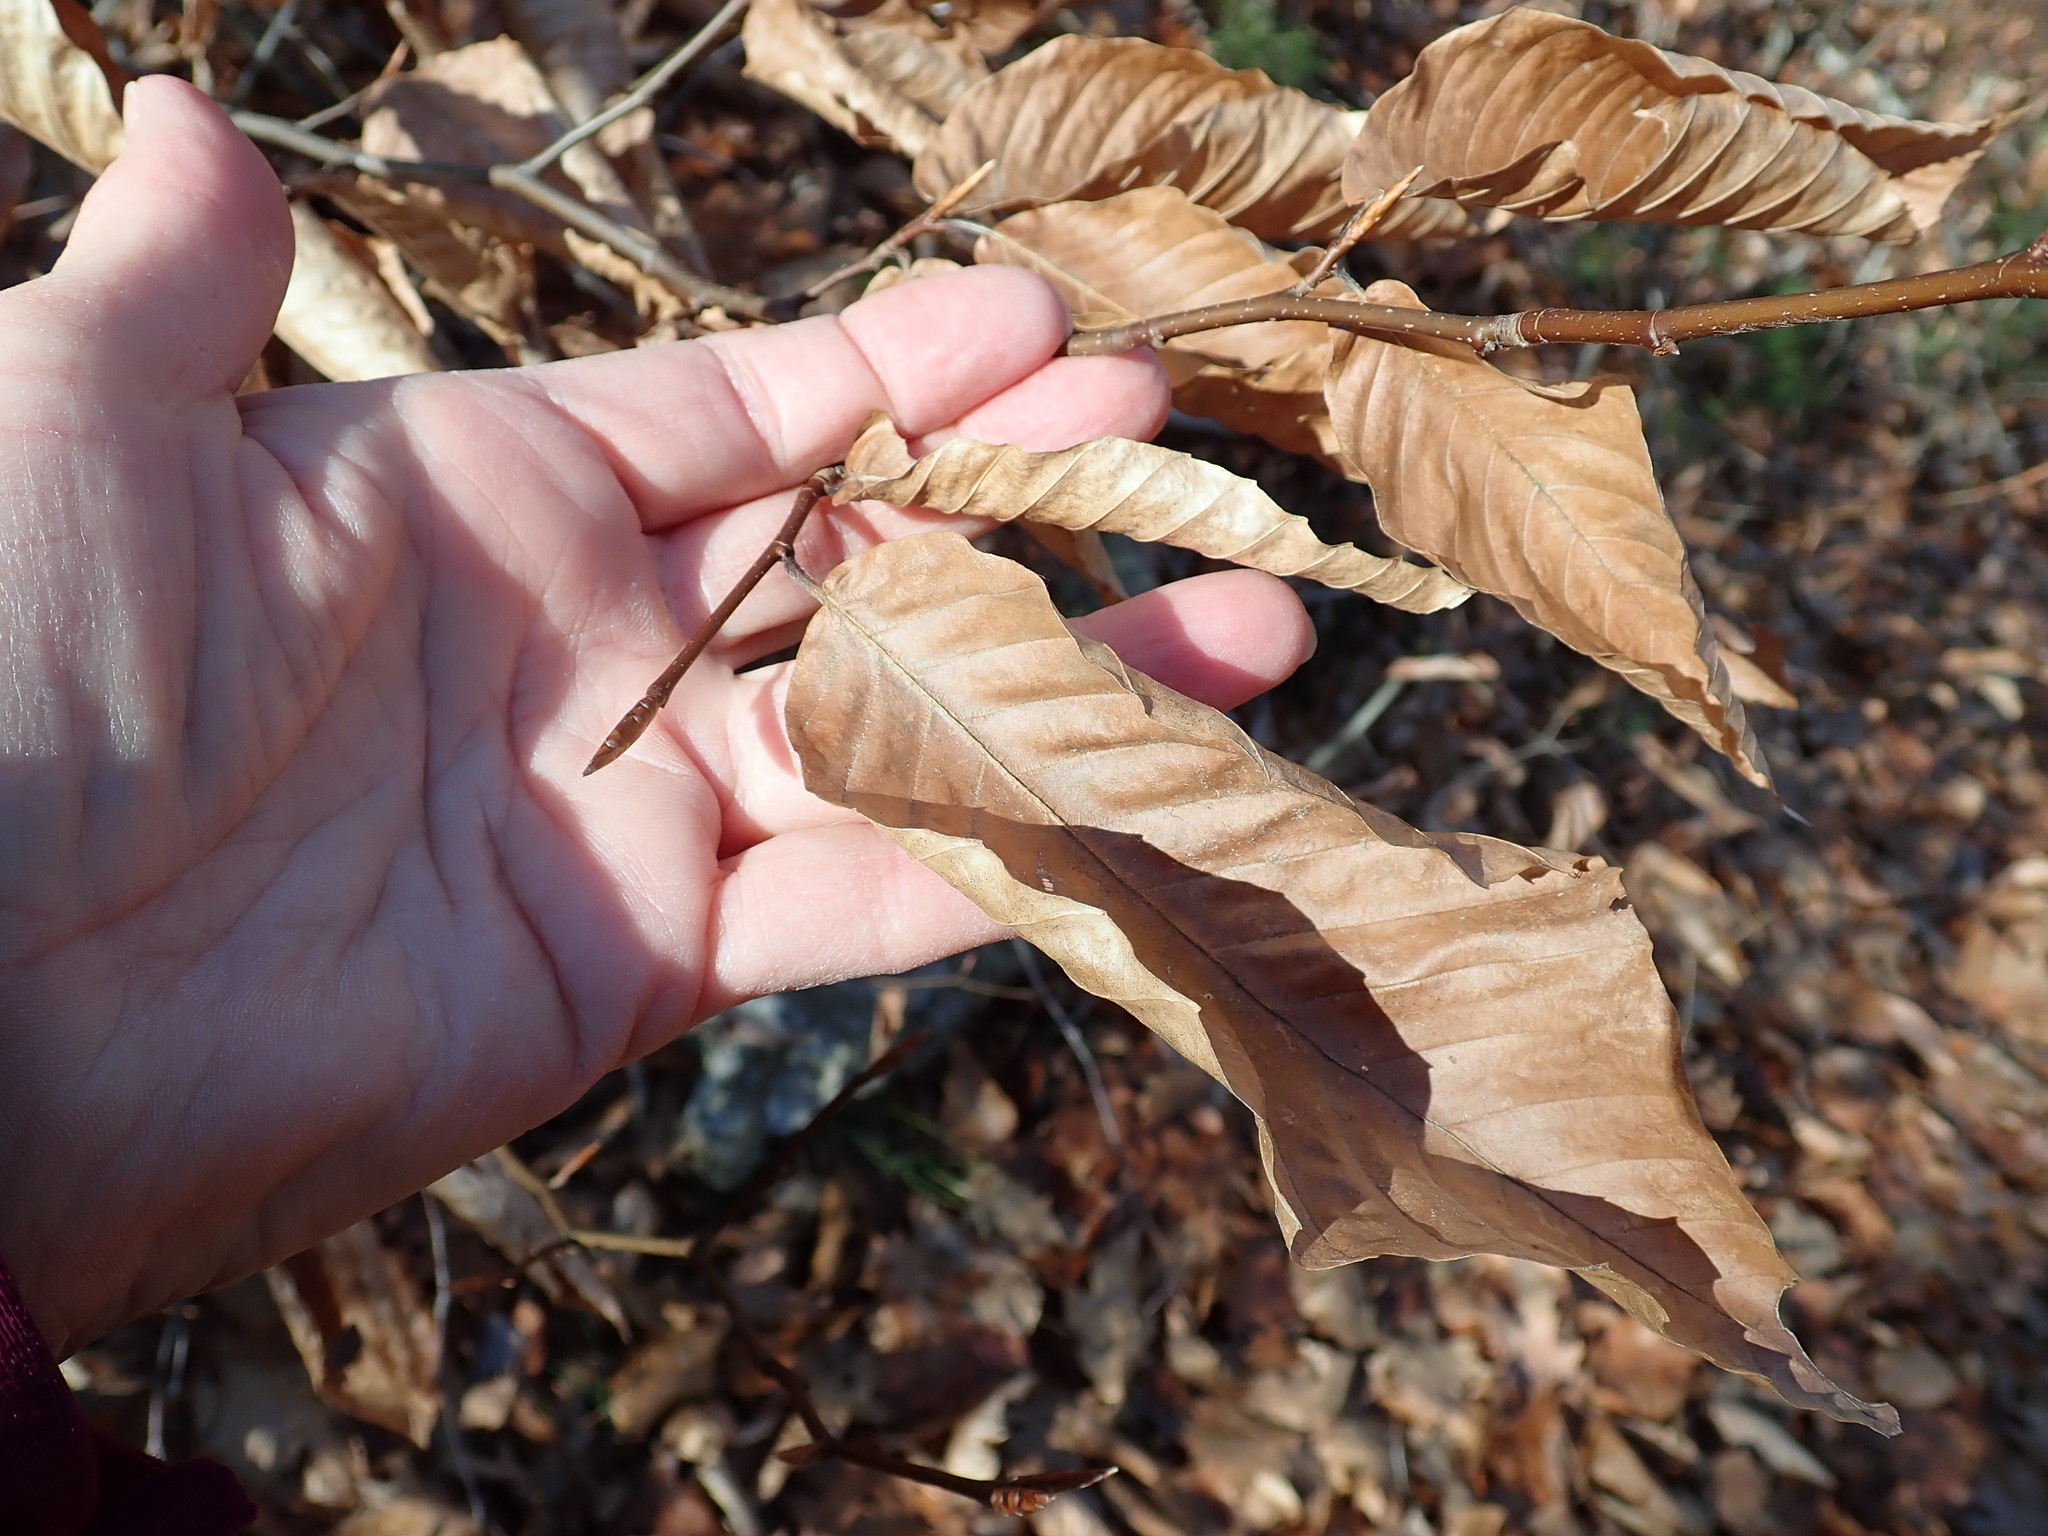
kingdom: Plantae
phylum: Tracheophyta
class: Magnoliopsida
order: Fagales
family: Fagaceae
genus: Fagus
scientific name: Fagus grandifolia
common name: American beech
